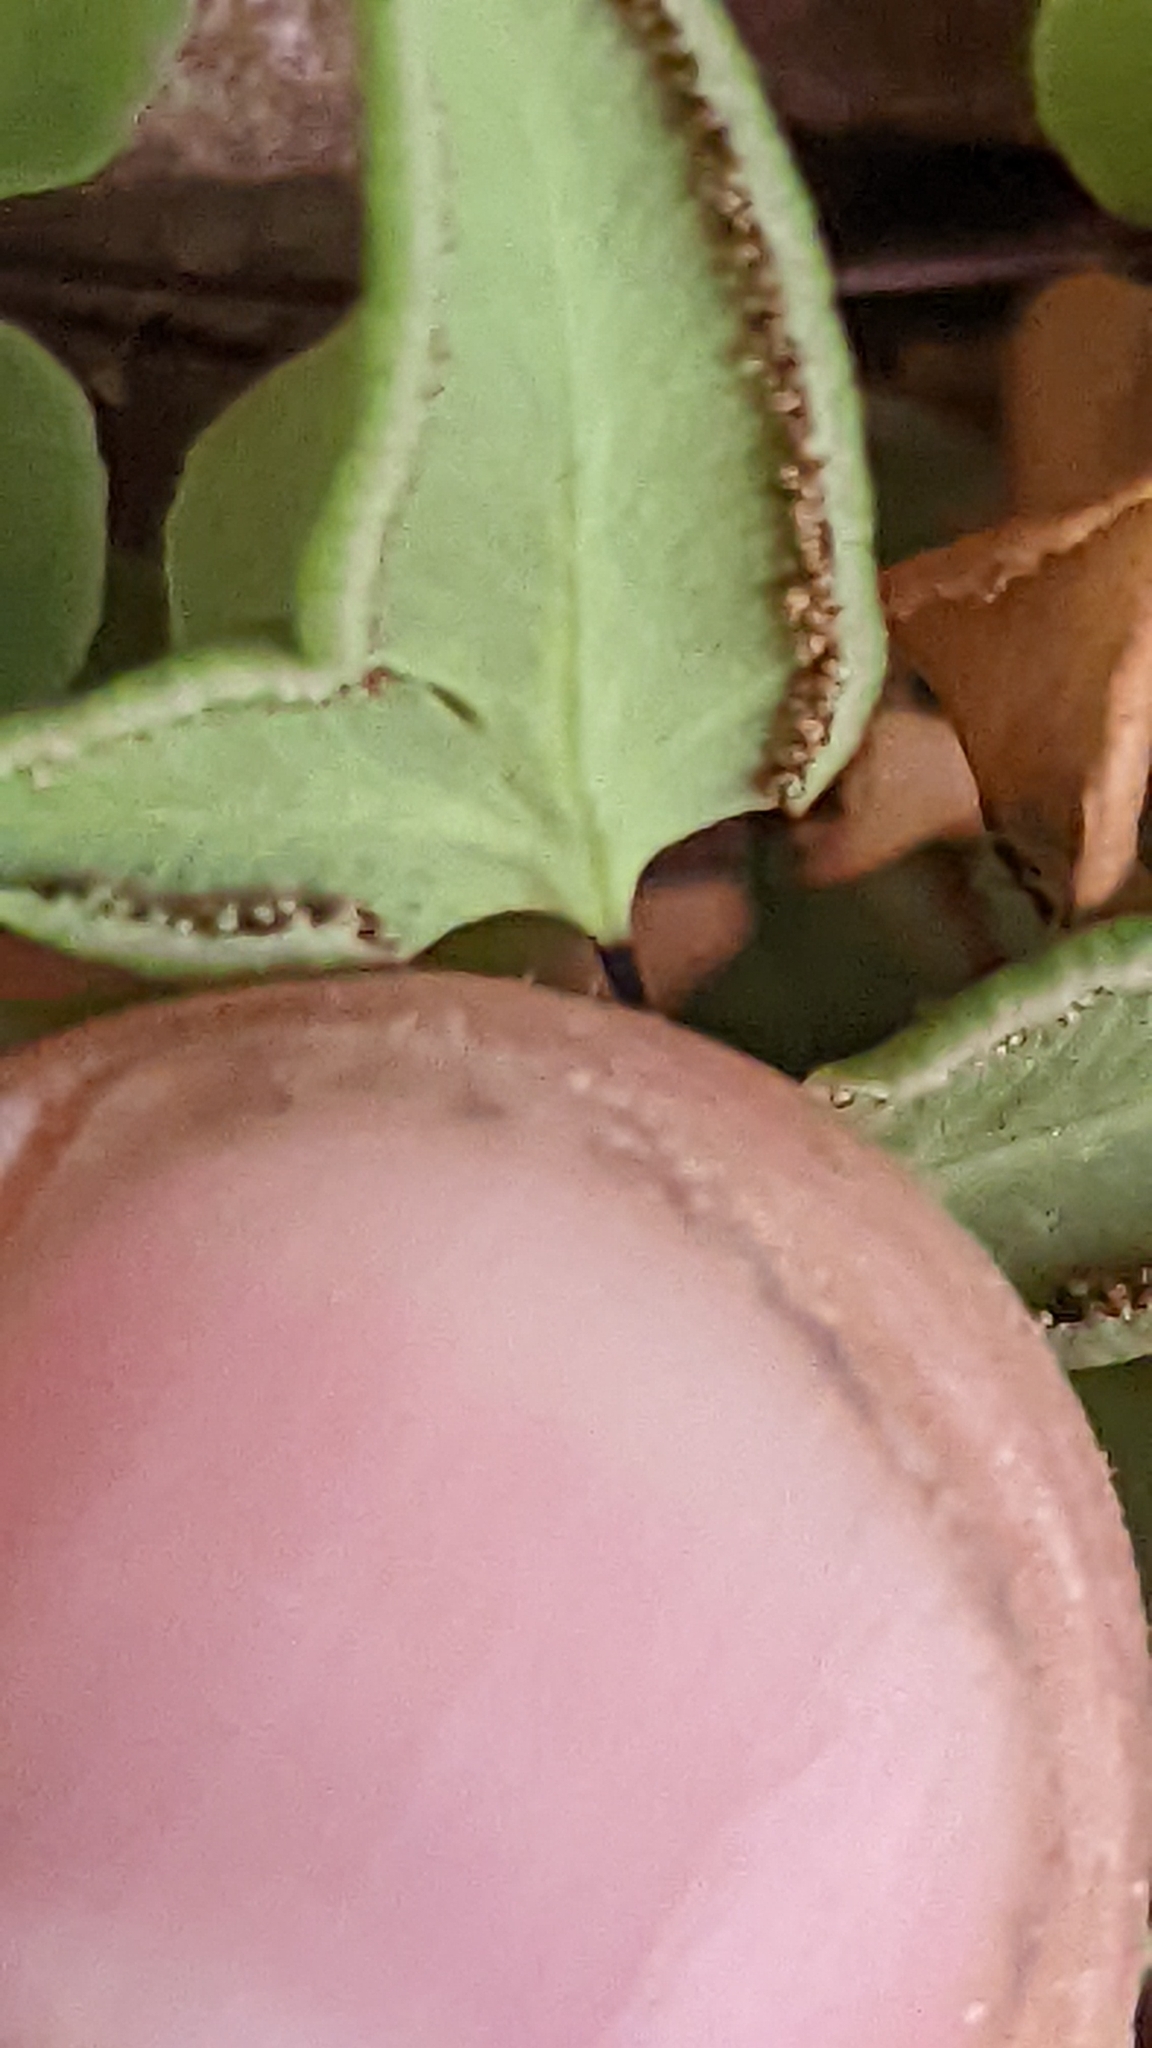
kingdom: Plantae
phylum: Tracheophyta
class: Polypodiopsida
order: Polypodiales
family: Pteridaceae
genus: Pellaea
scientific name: Pellaea glabella
